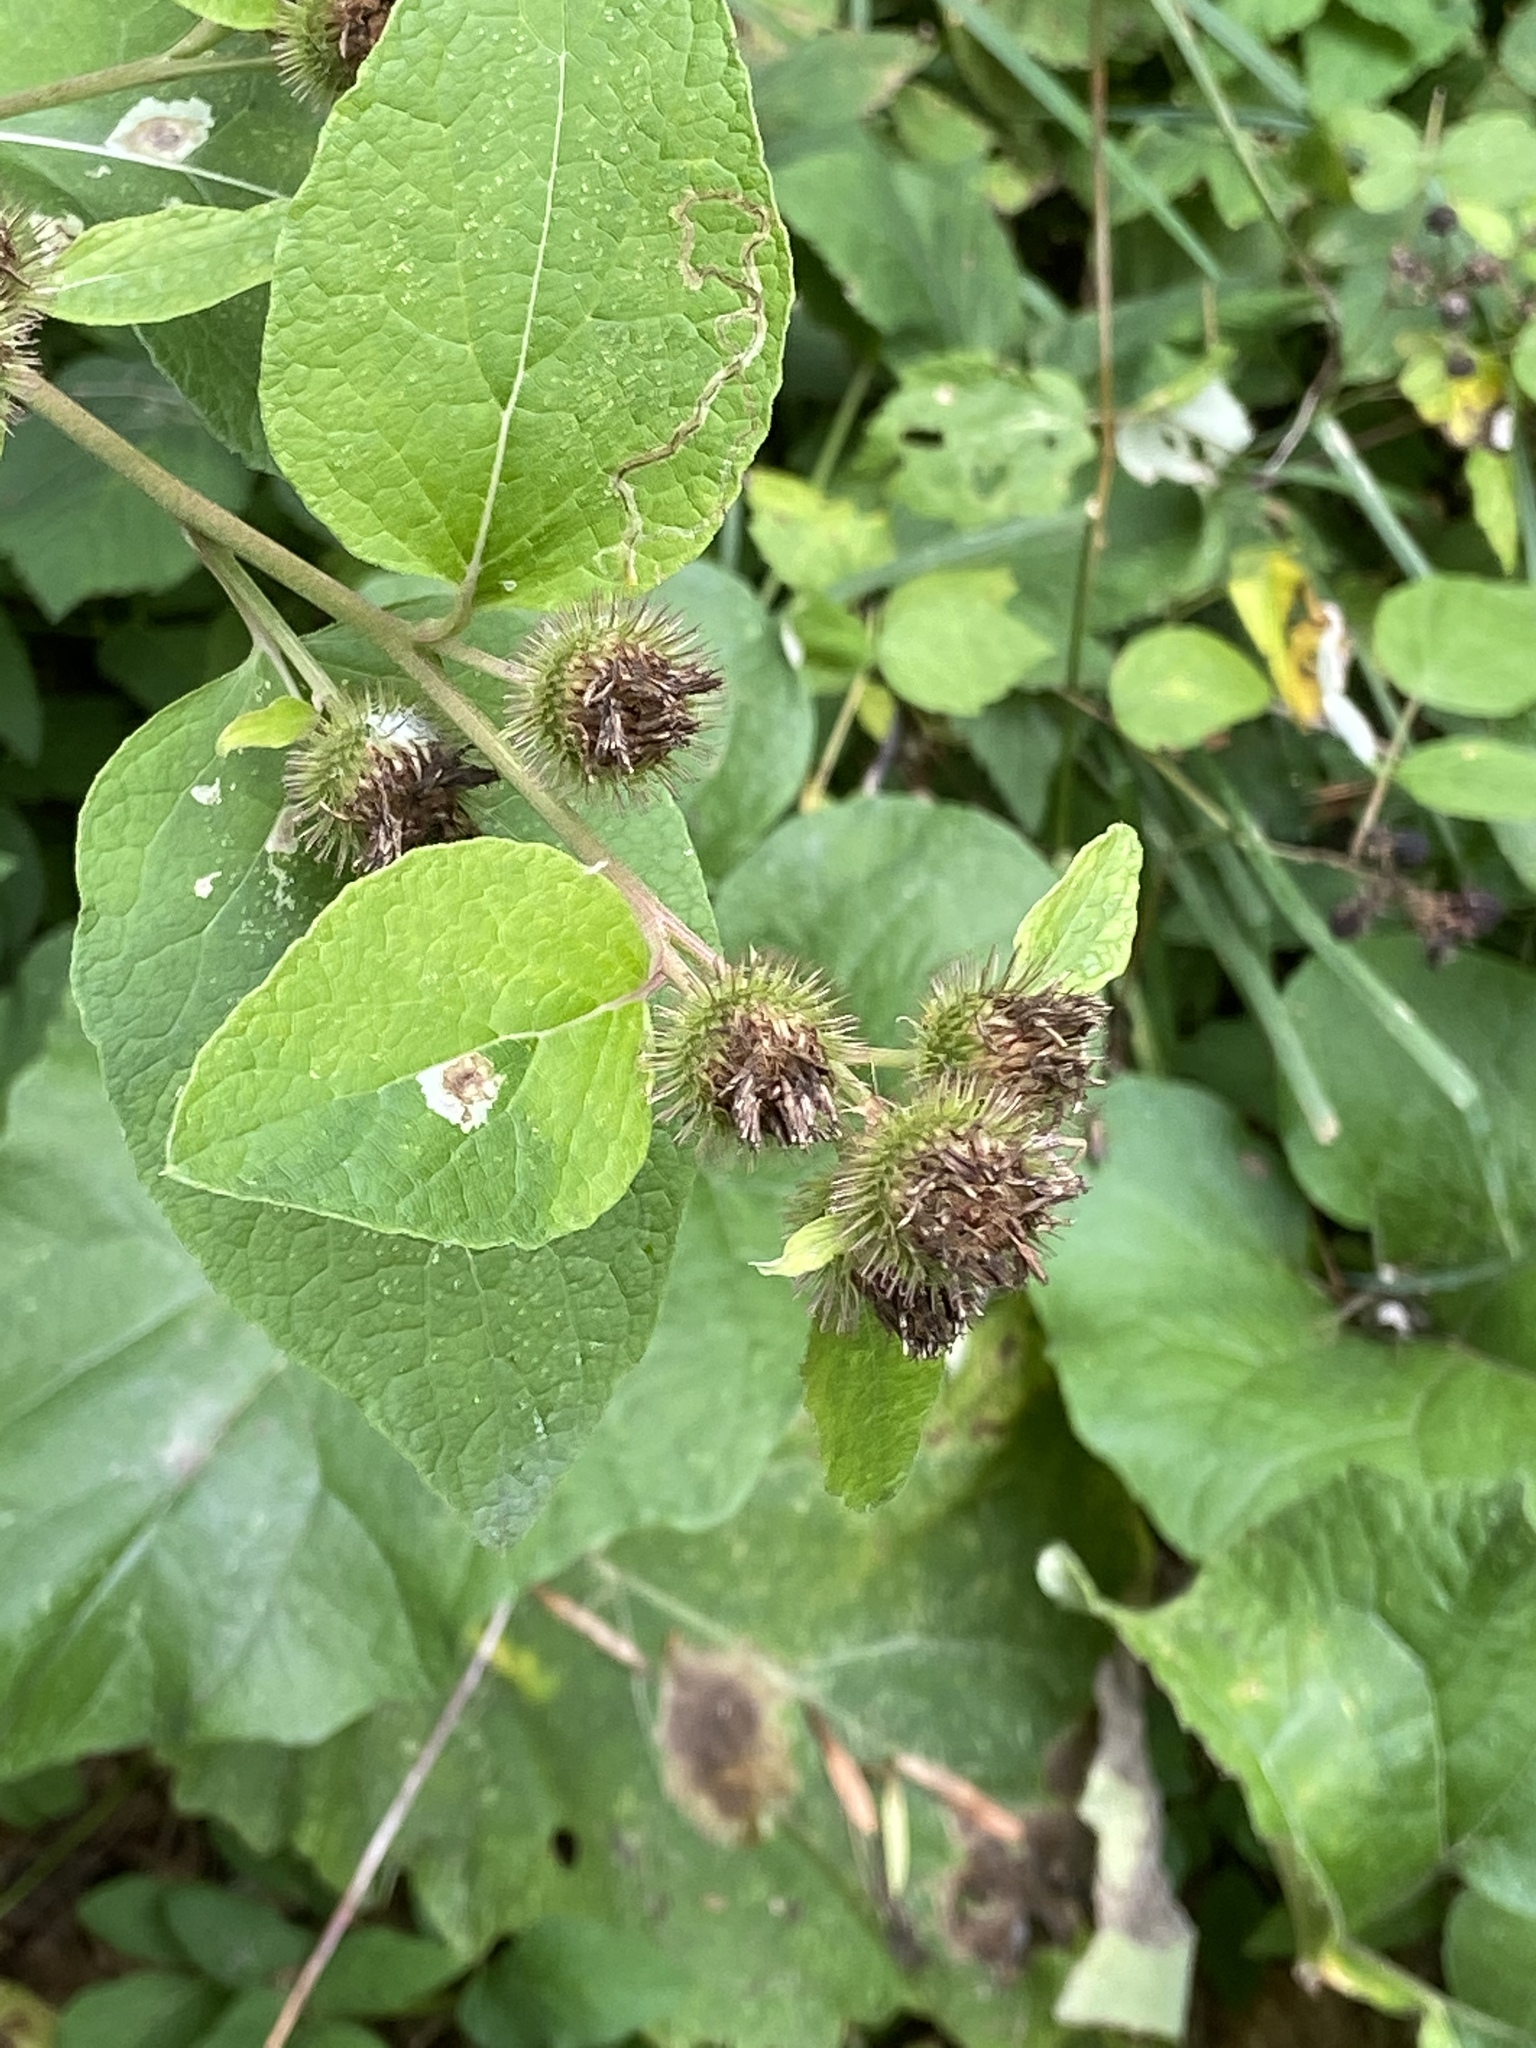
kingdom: Plantae
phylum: Tracheophyta
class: Magnoliopsida
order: Asterales
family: Asteraceae
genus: Arctium
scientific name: Arctium minus
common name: Lesser burdock
